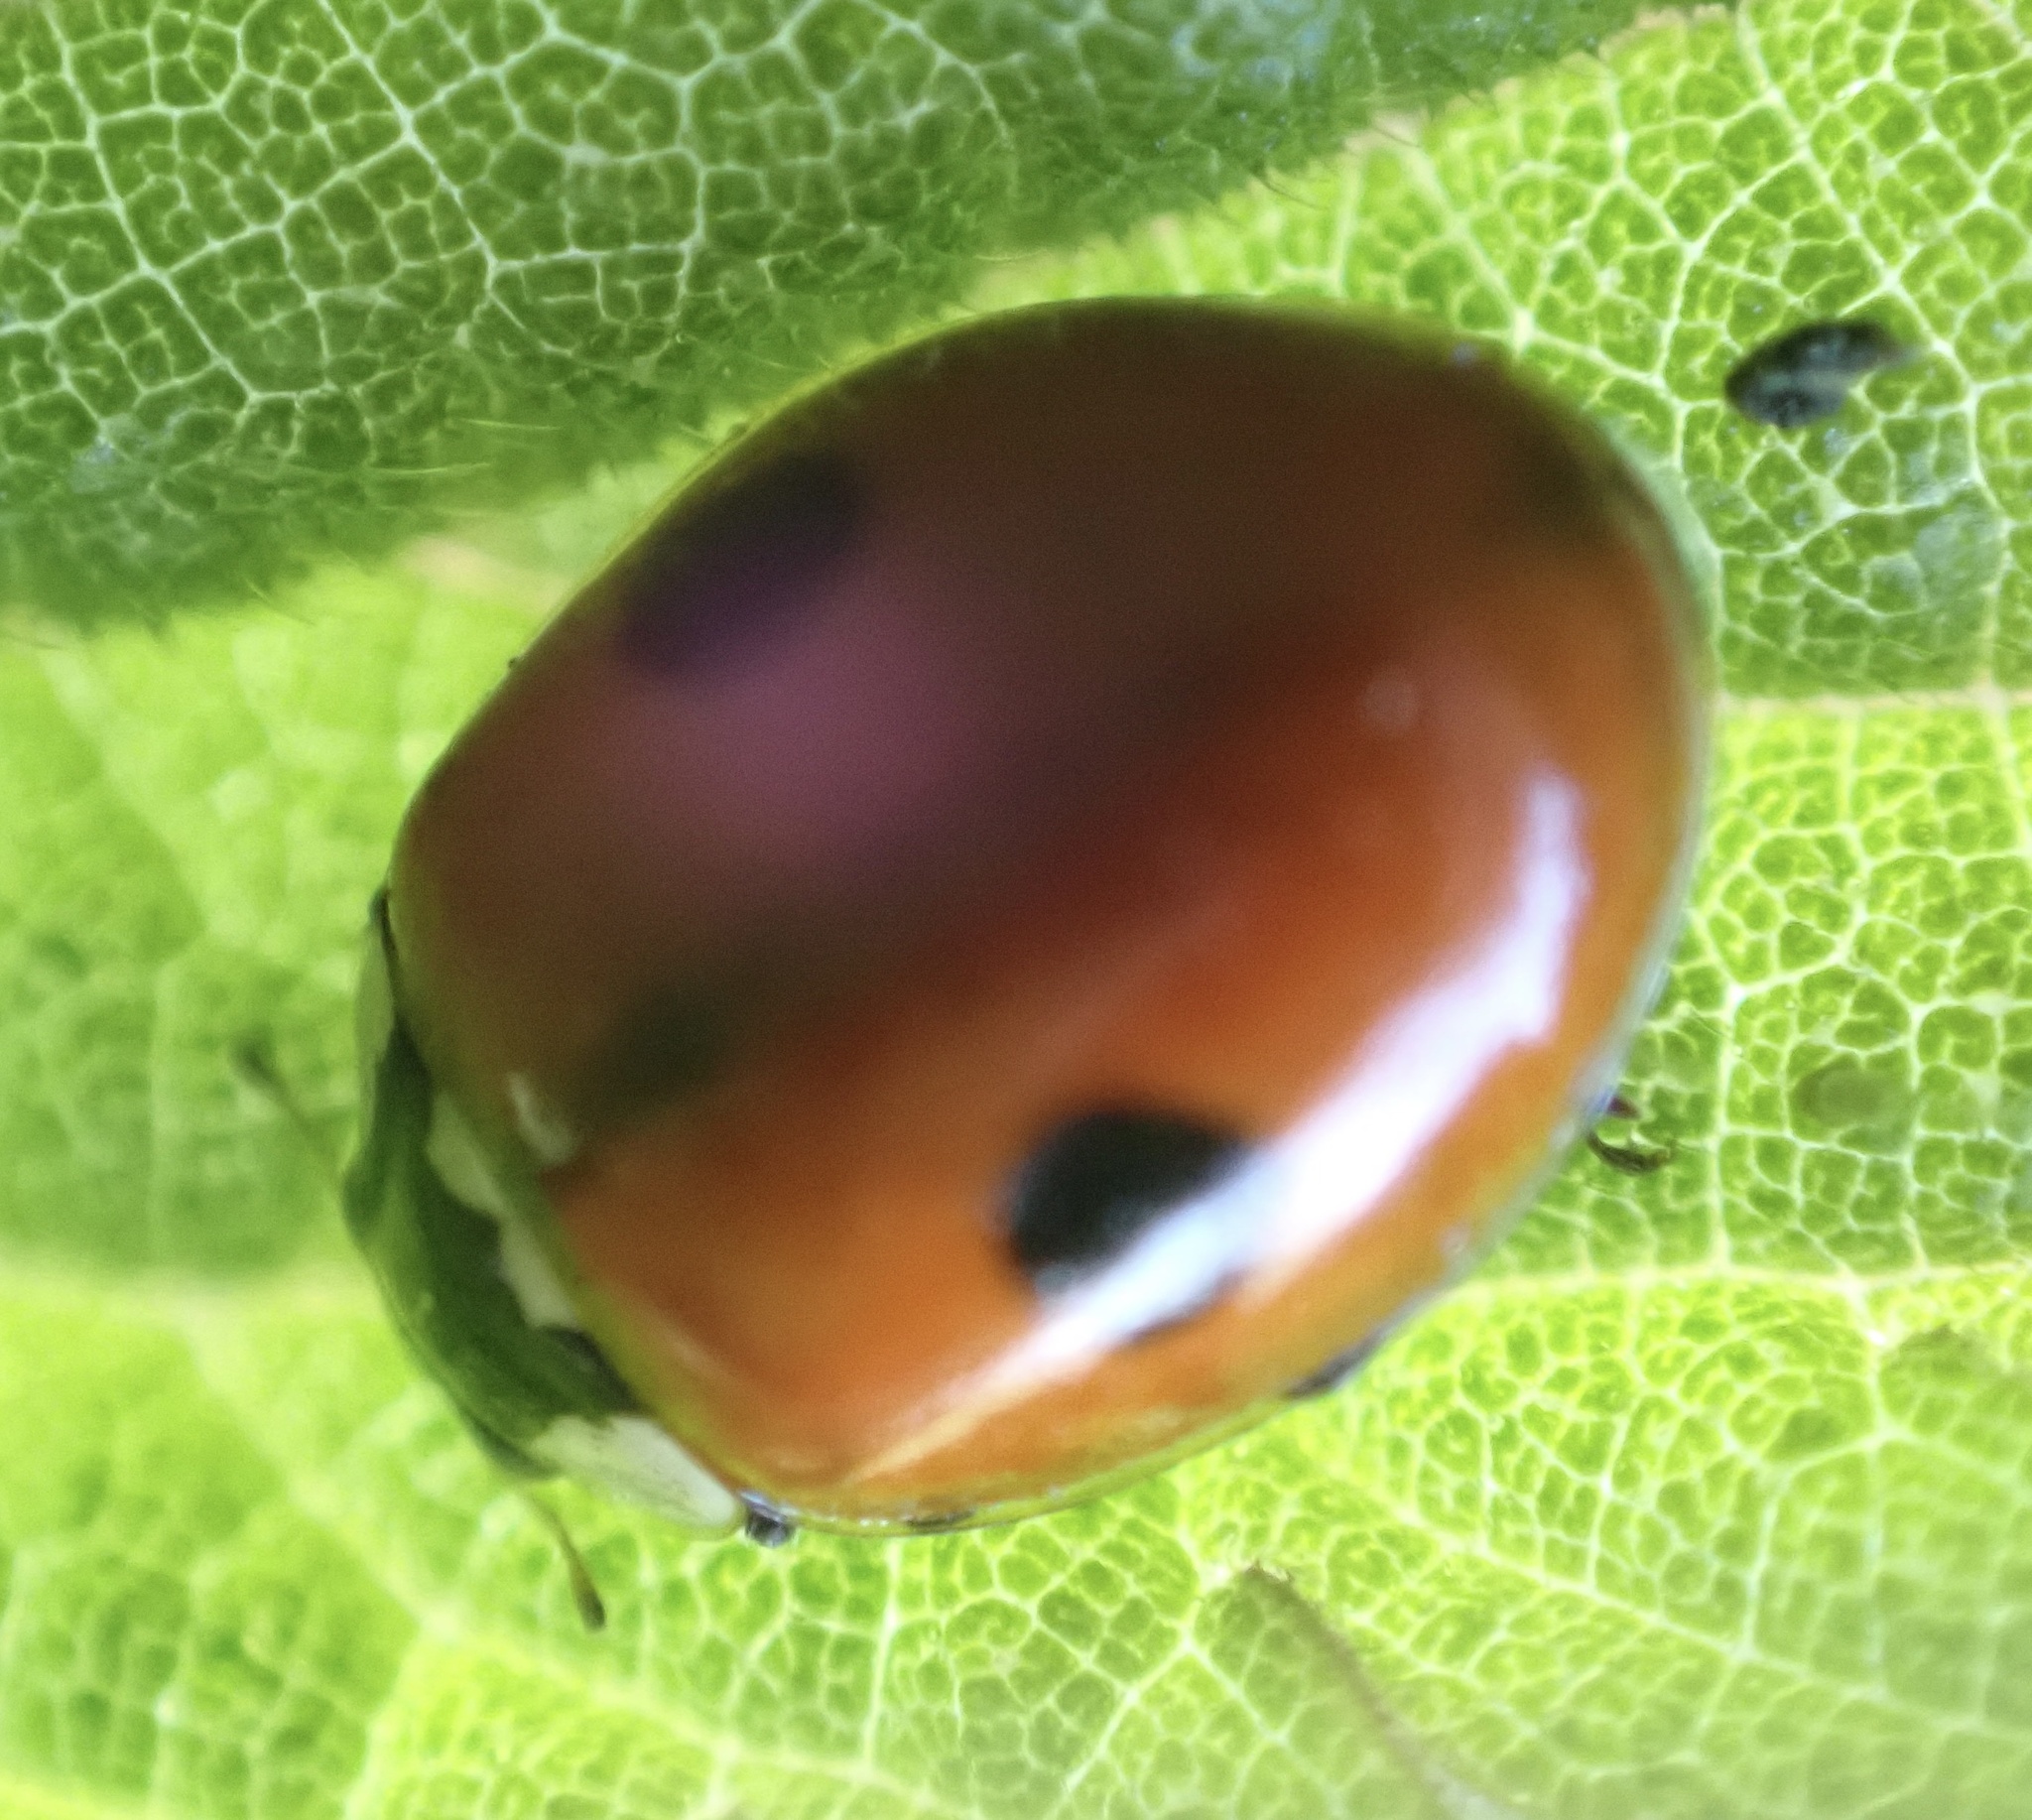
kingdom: Animalia
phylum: Arthropoda
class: Insecta
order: Coleoptera
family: Coccinellidae
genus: Adalia
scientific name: Adalia bipunctata
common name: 2-spot ladybird
